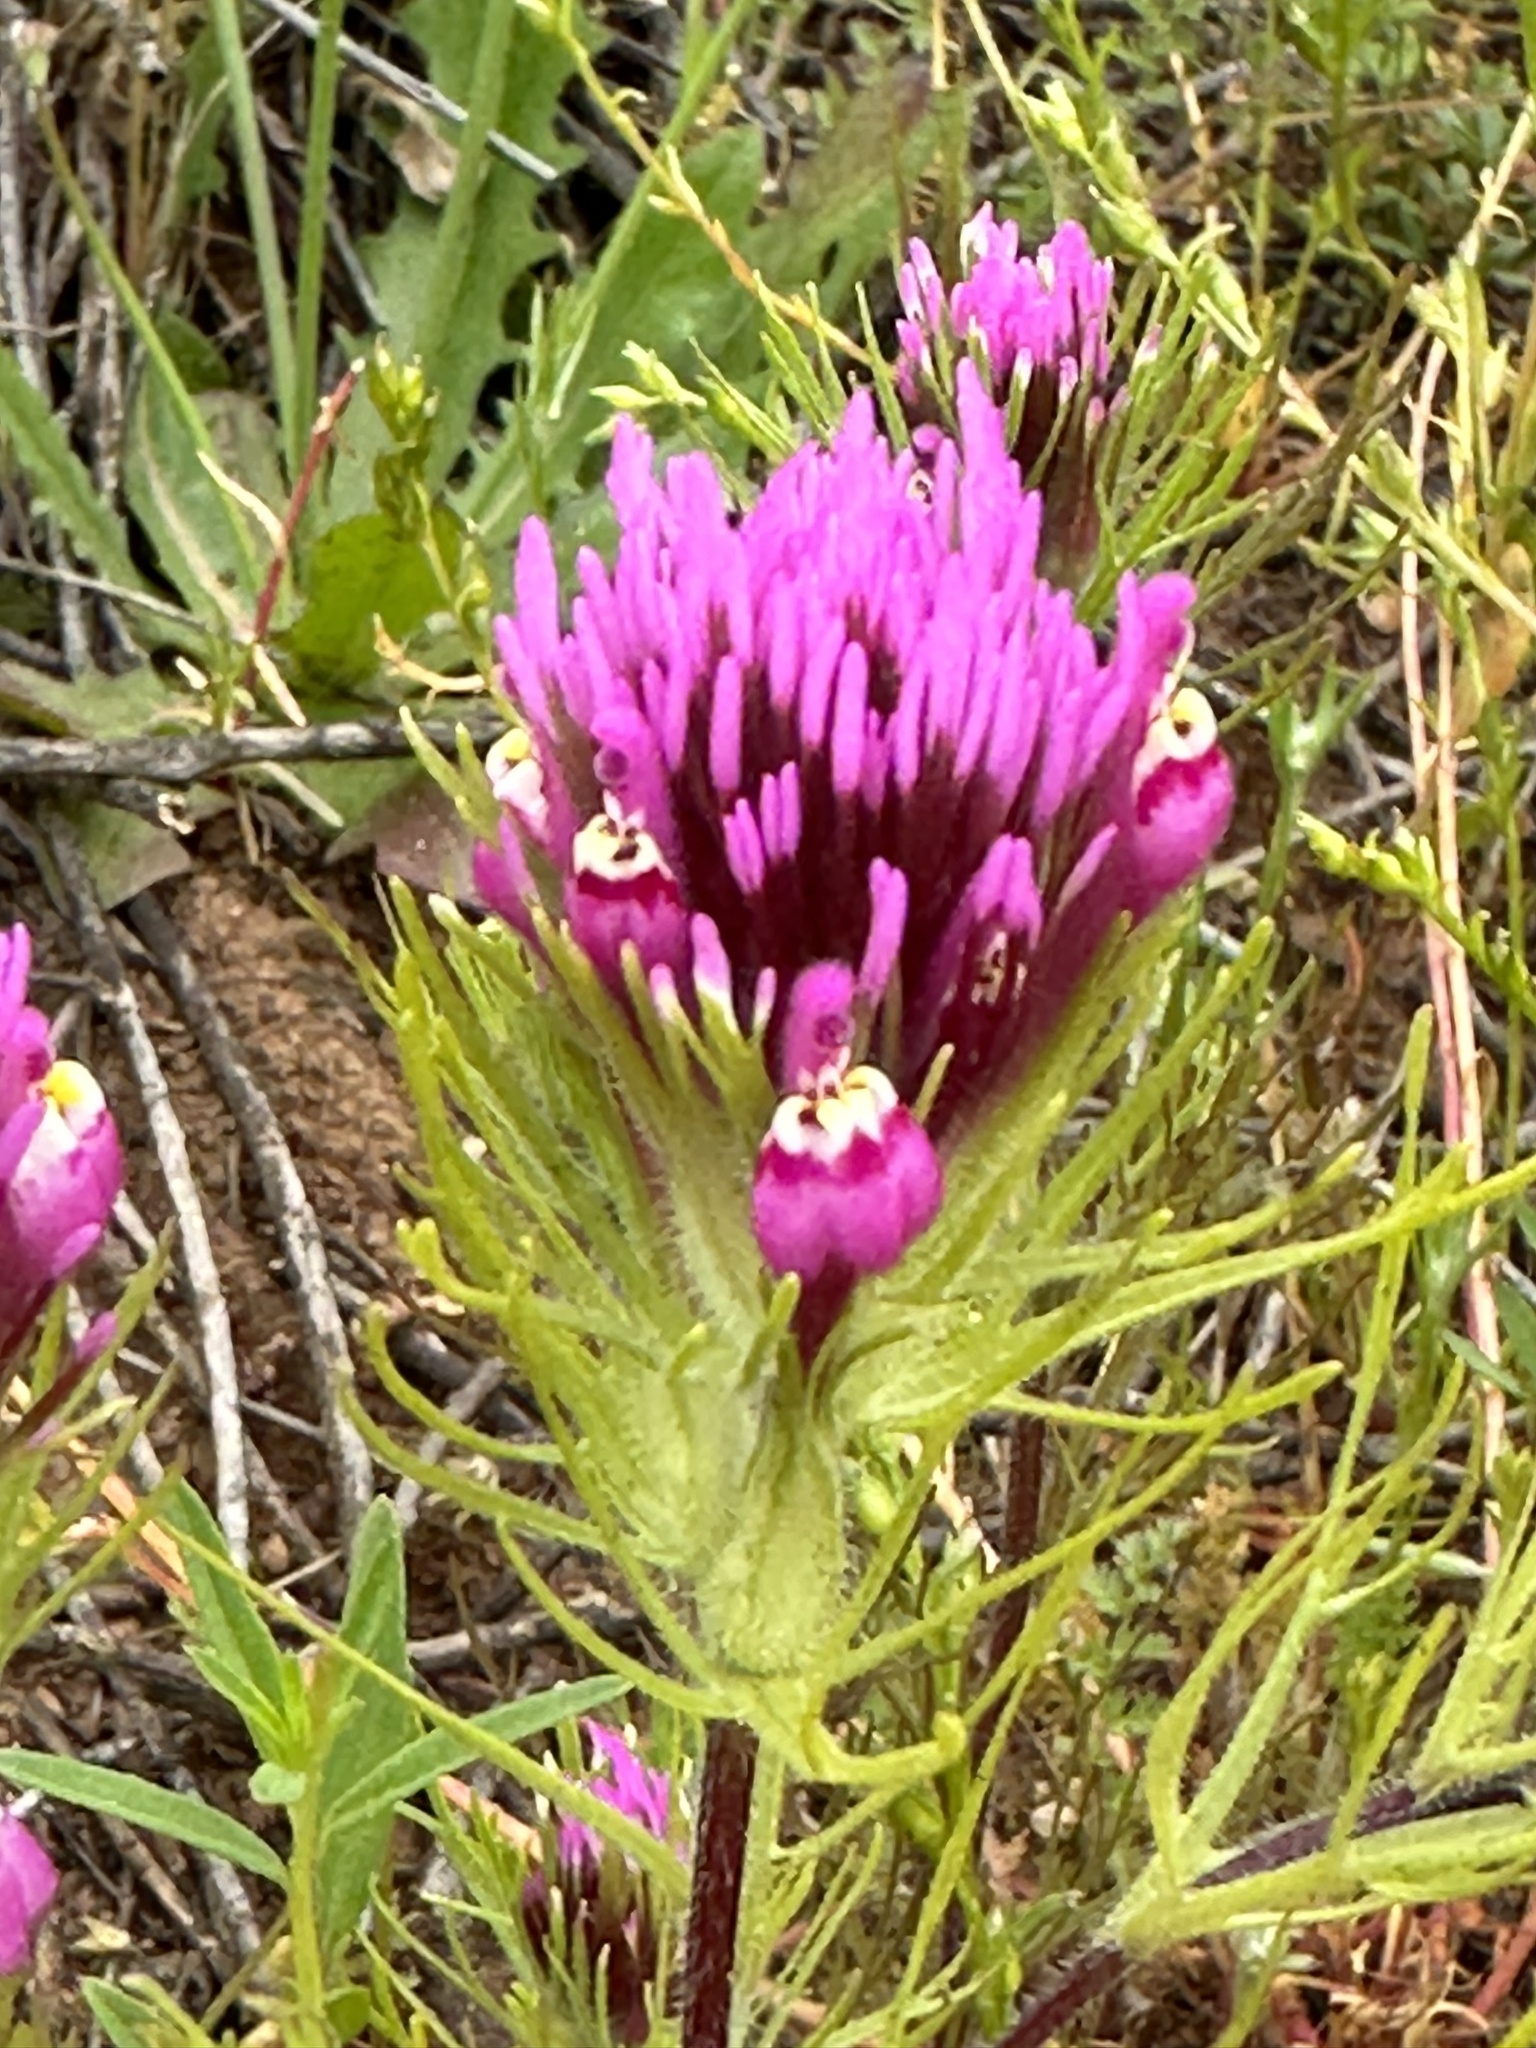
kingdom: Plantae
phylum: Tracheophyta
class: Magnoliopsida
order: Lamiales
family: Orobanchaceae
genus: Castilleja
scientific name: Castilleja exserta
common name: Purple owl-clover
